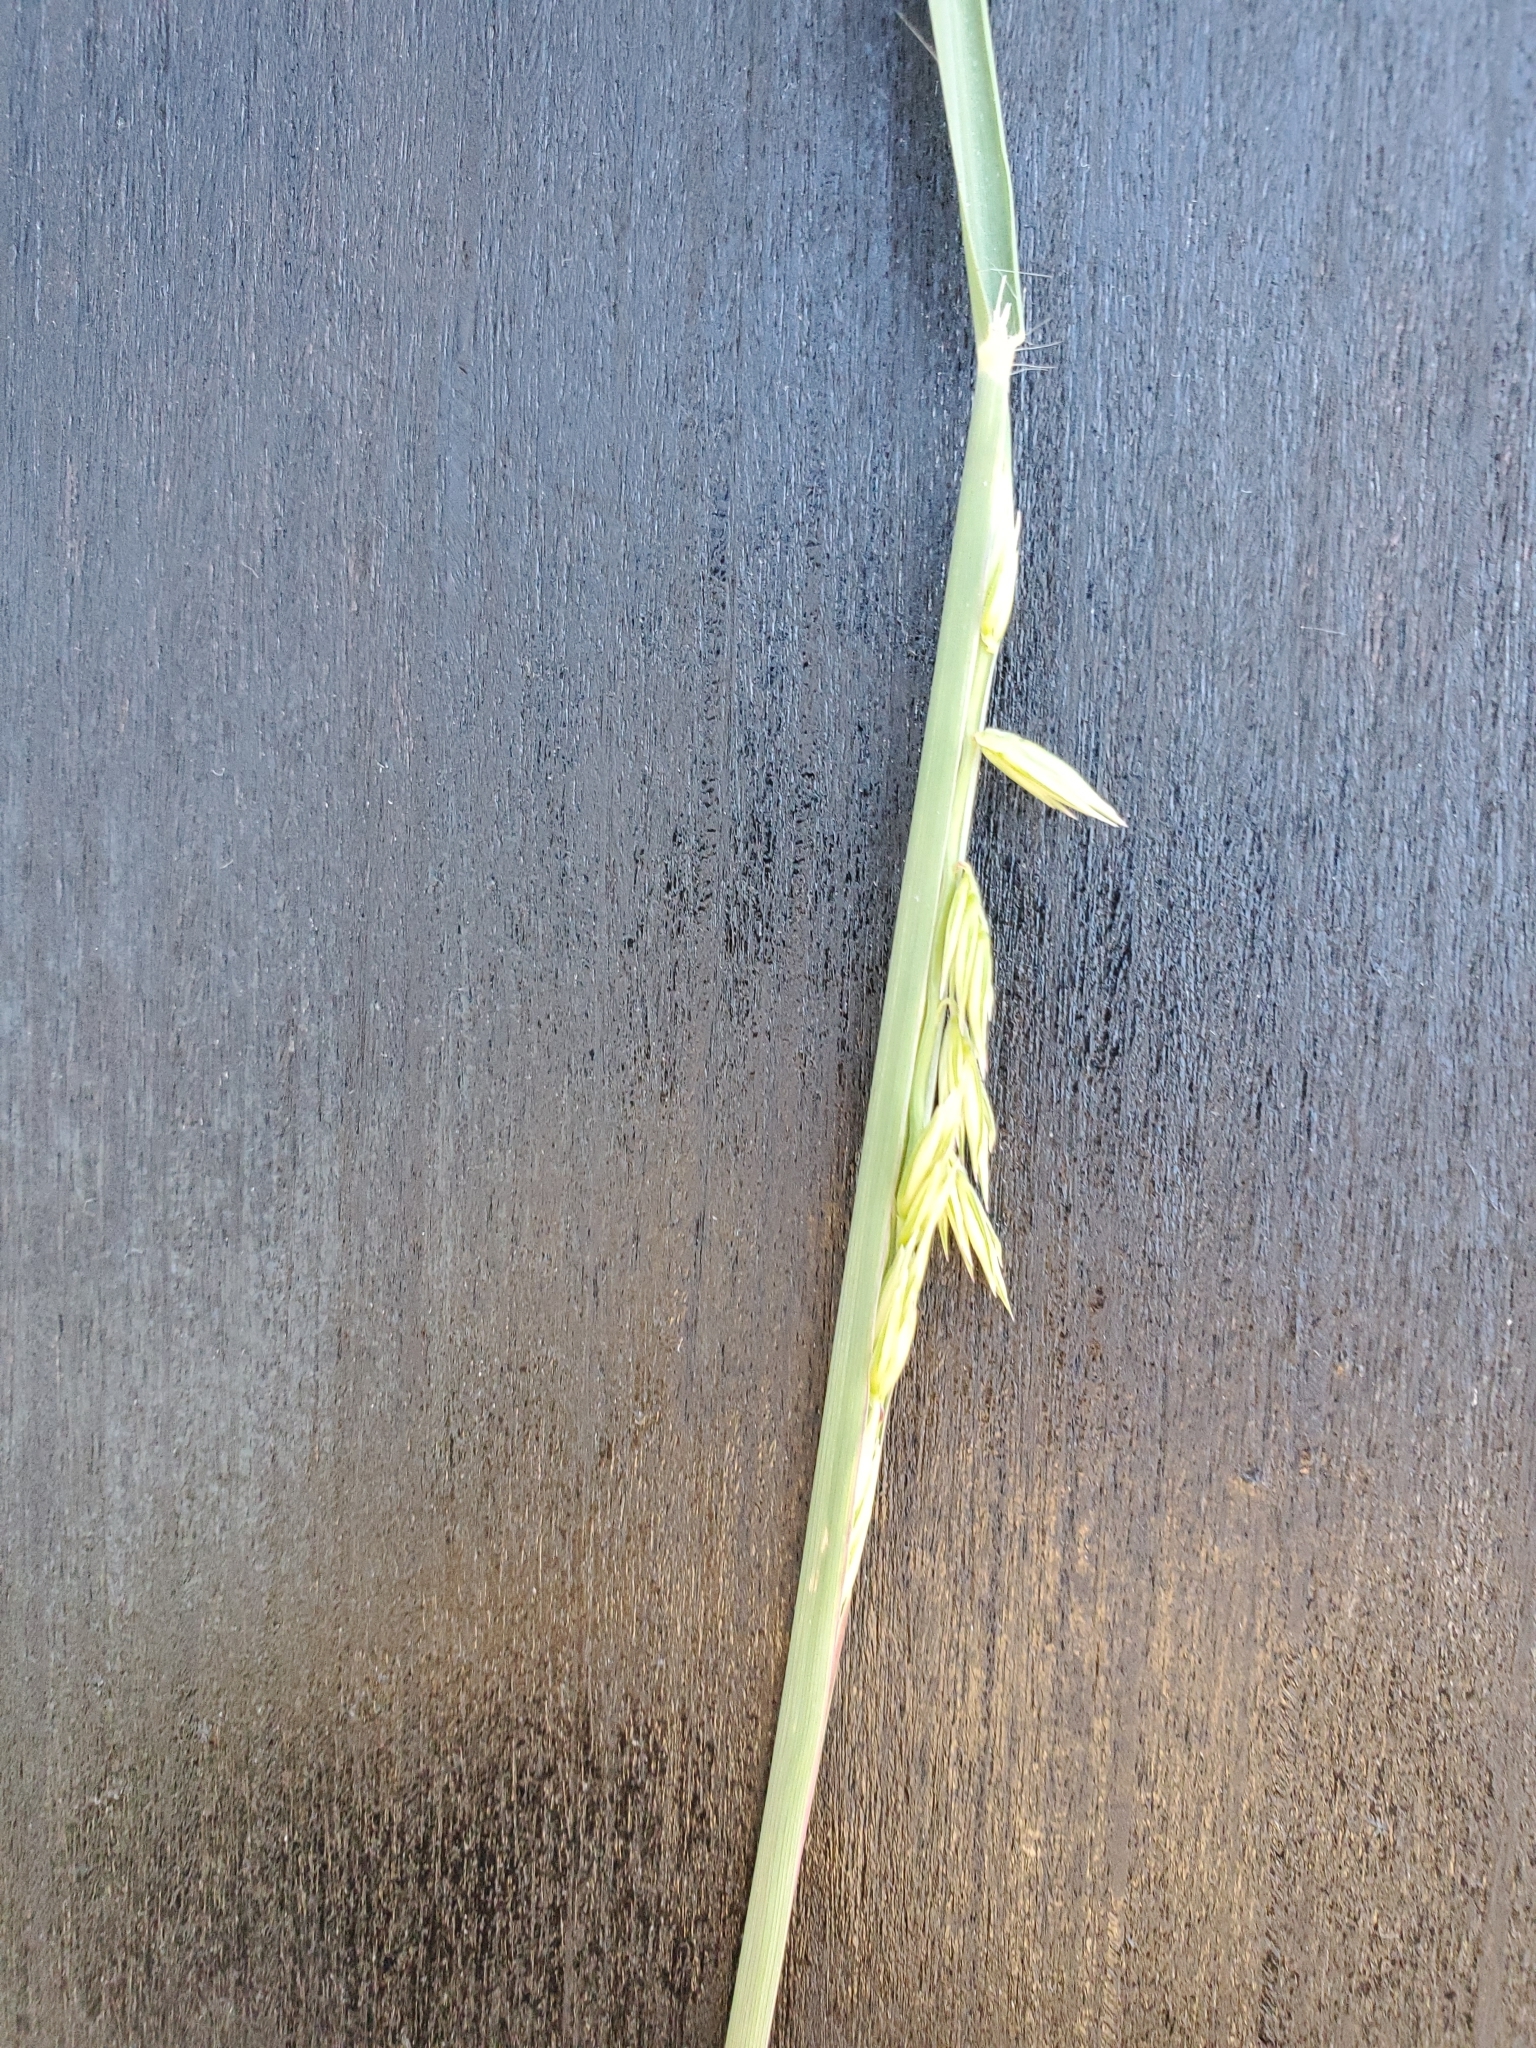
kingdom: Plantae
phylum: Tracheophyta
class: Liliopsida
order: Poales
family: Poaceae
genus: Bouteloua
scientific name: Bouteloua curtipendula
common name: Side-oats grama
